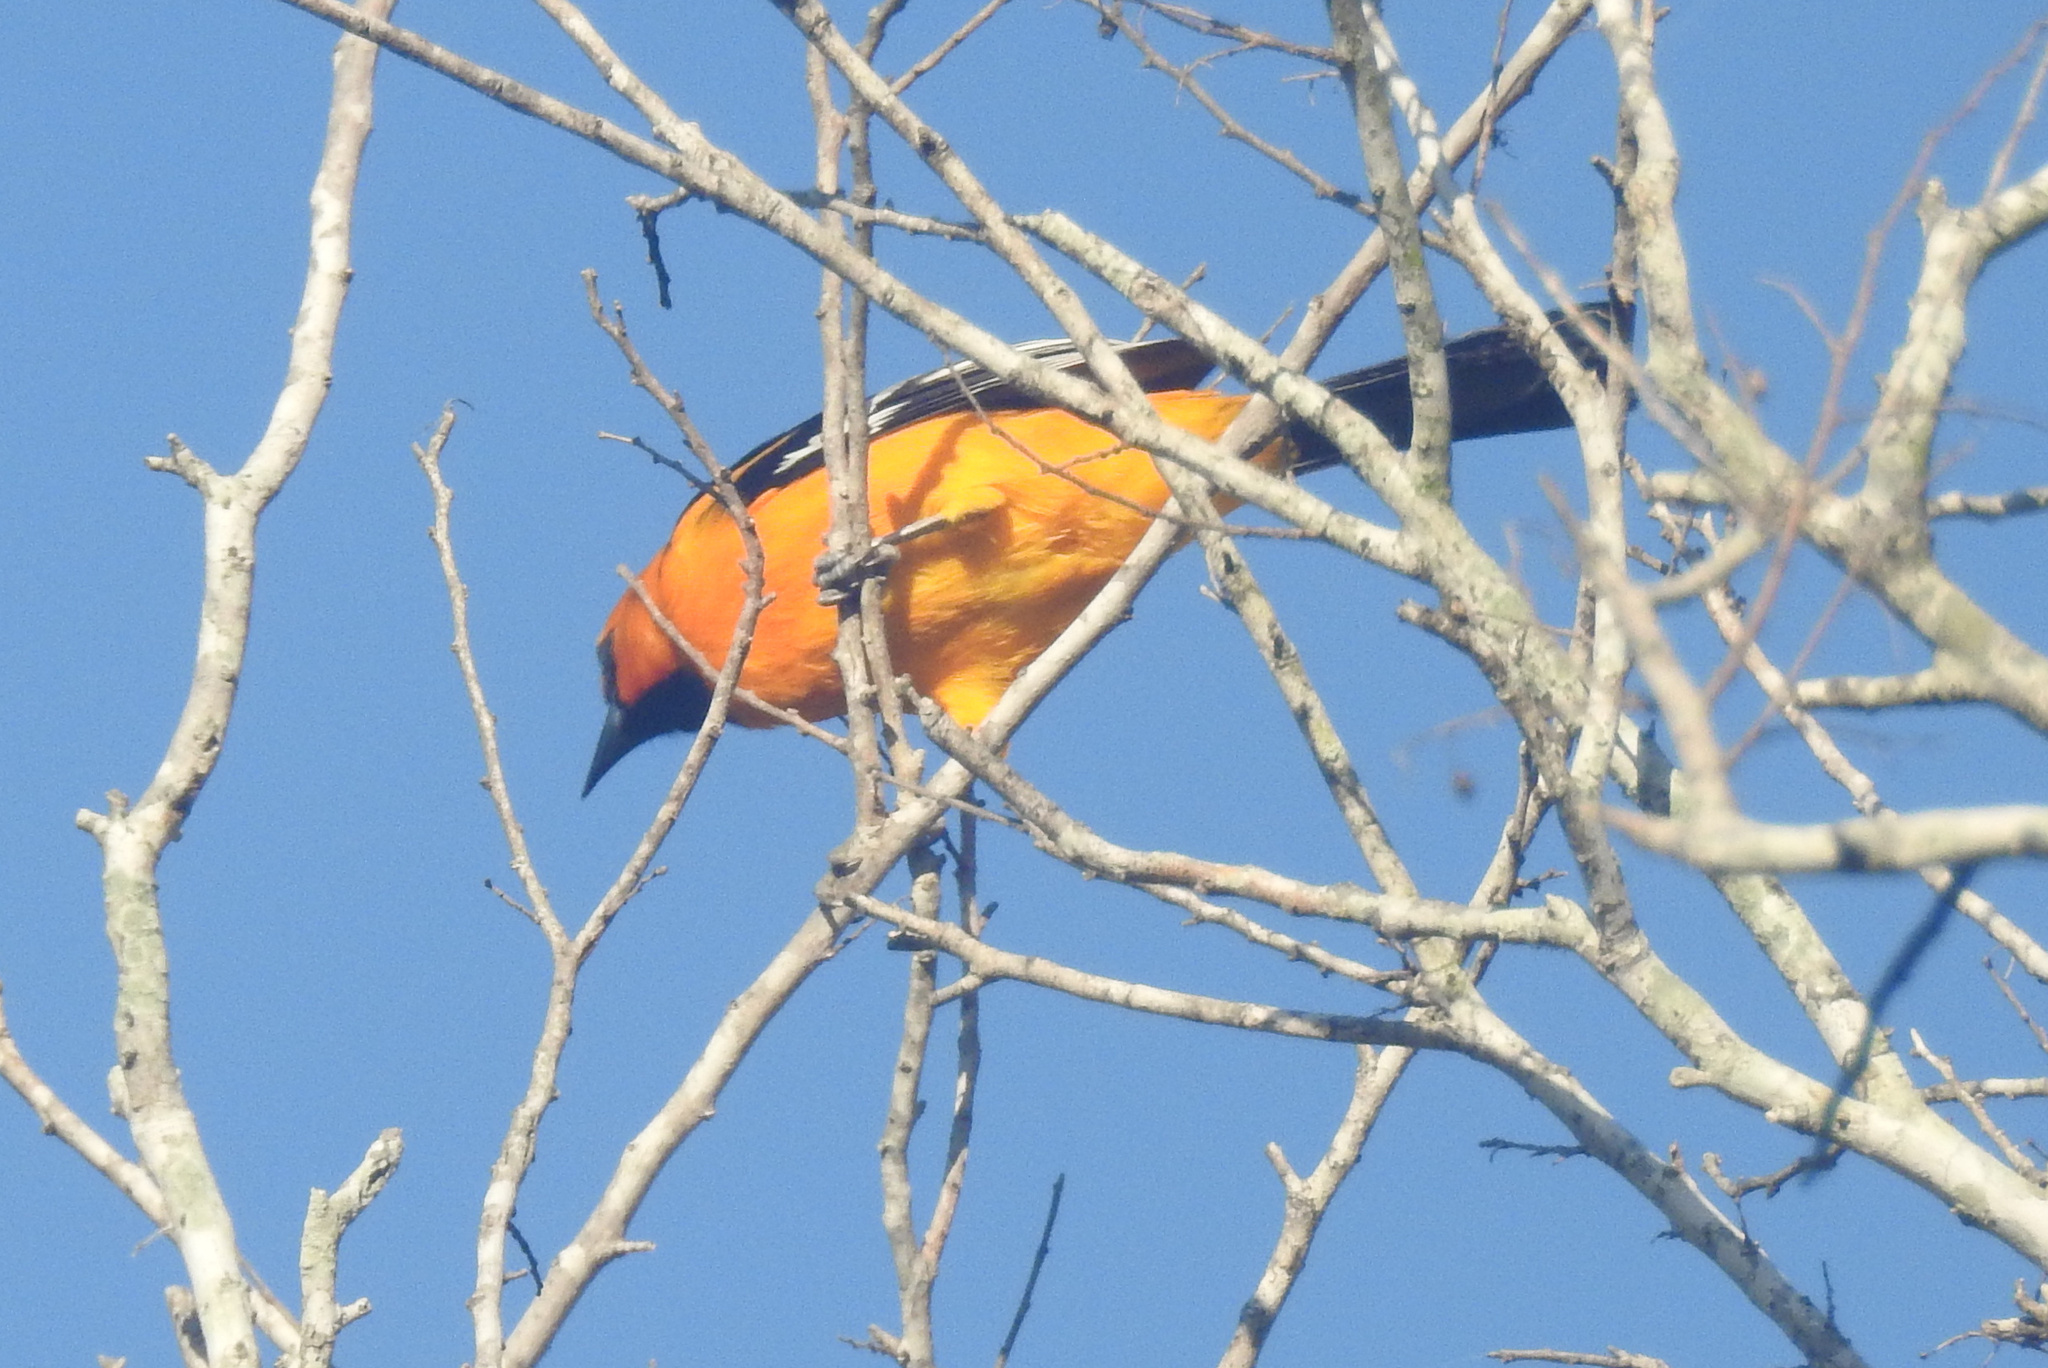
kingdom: Animalia
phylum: Chordata
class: Aves
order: Passeriformes
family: Icteridae
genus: Icterus
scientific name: Icterus gularis
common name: Altamira oriole
